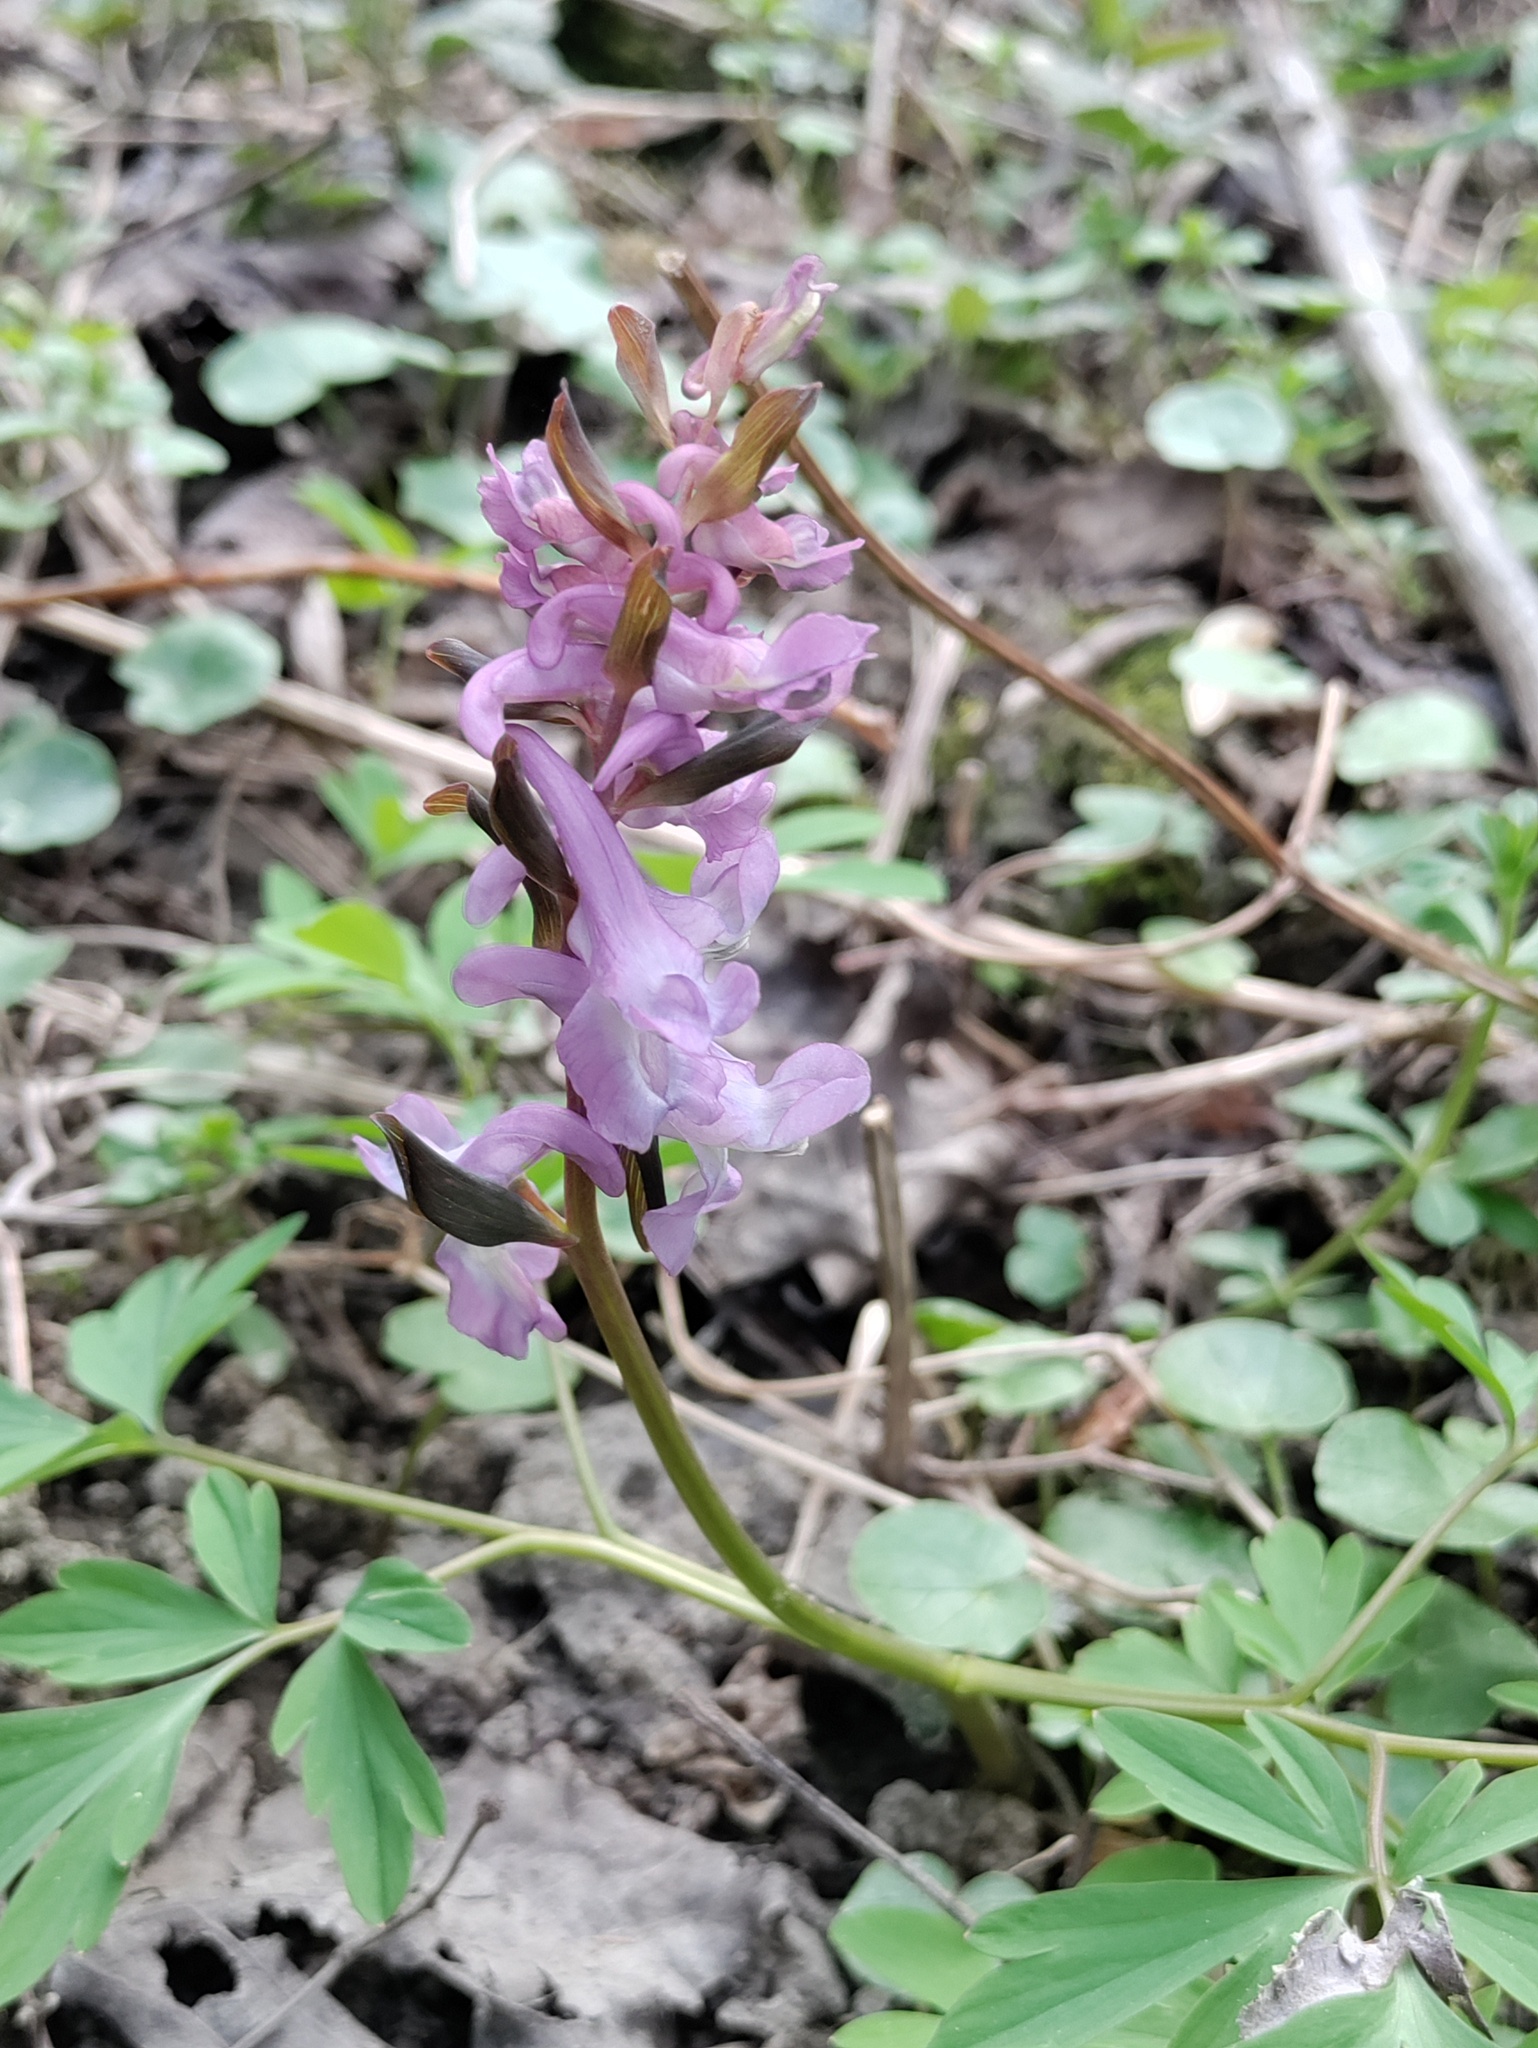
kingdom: Plantae
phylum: Tracheophyta
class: Magnoliopsida
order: Ranunculales
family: Papaveraceae
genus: Corydalis
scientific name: Corydalis cava
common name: Hollowroot
